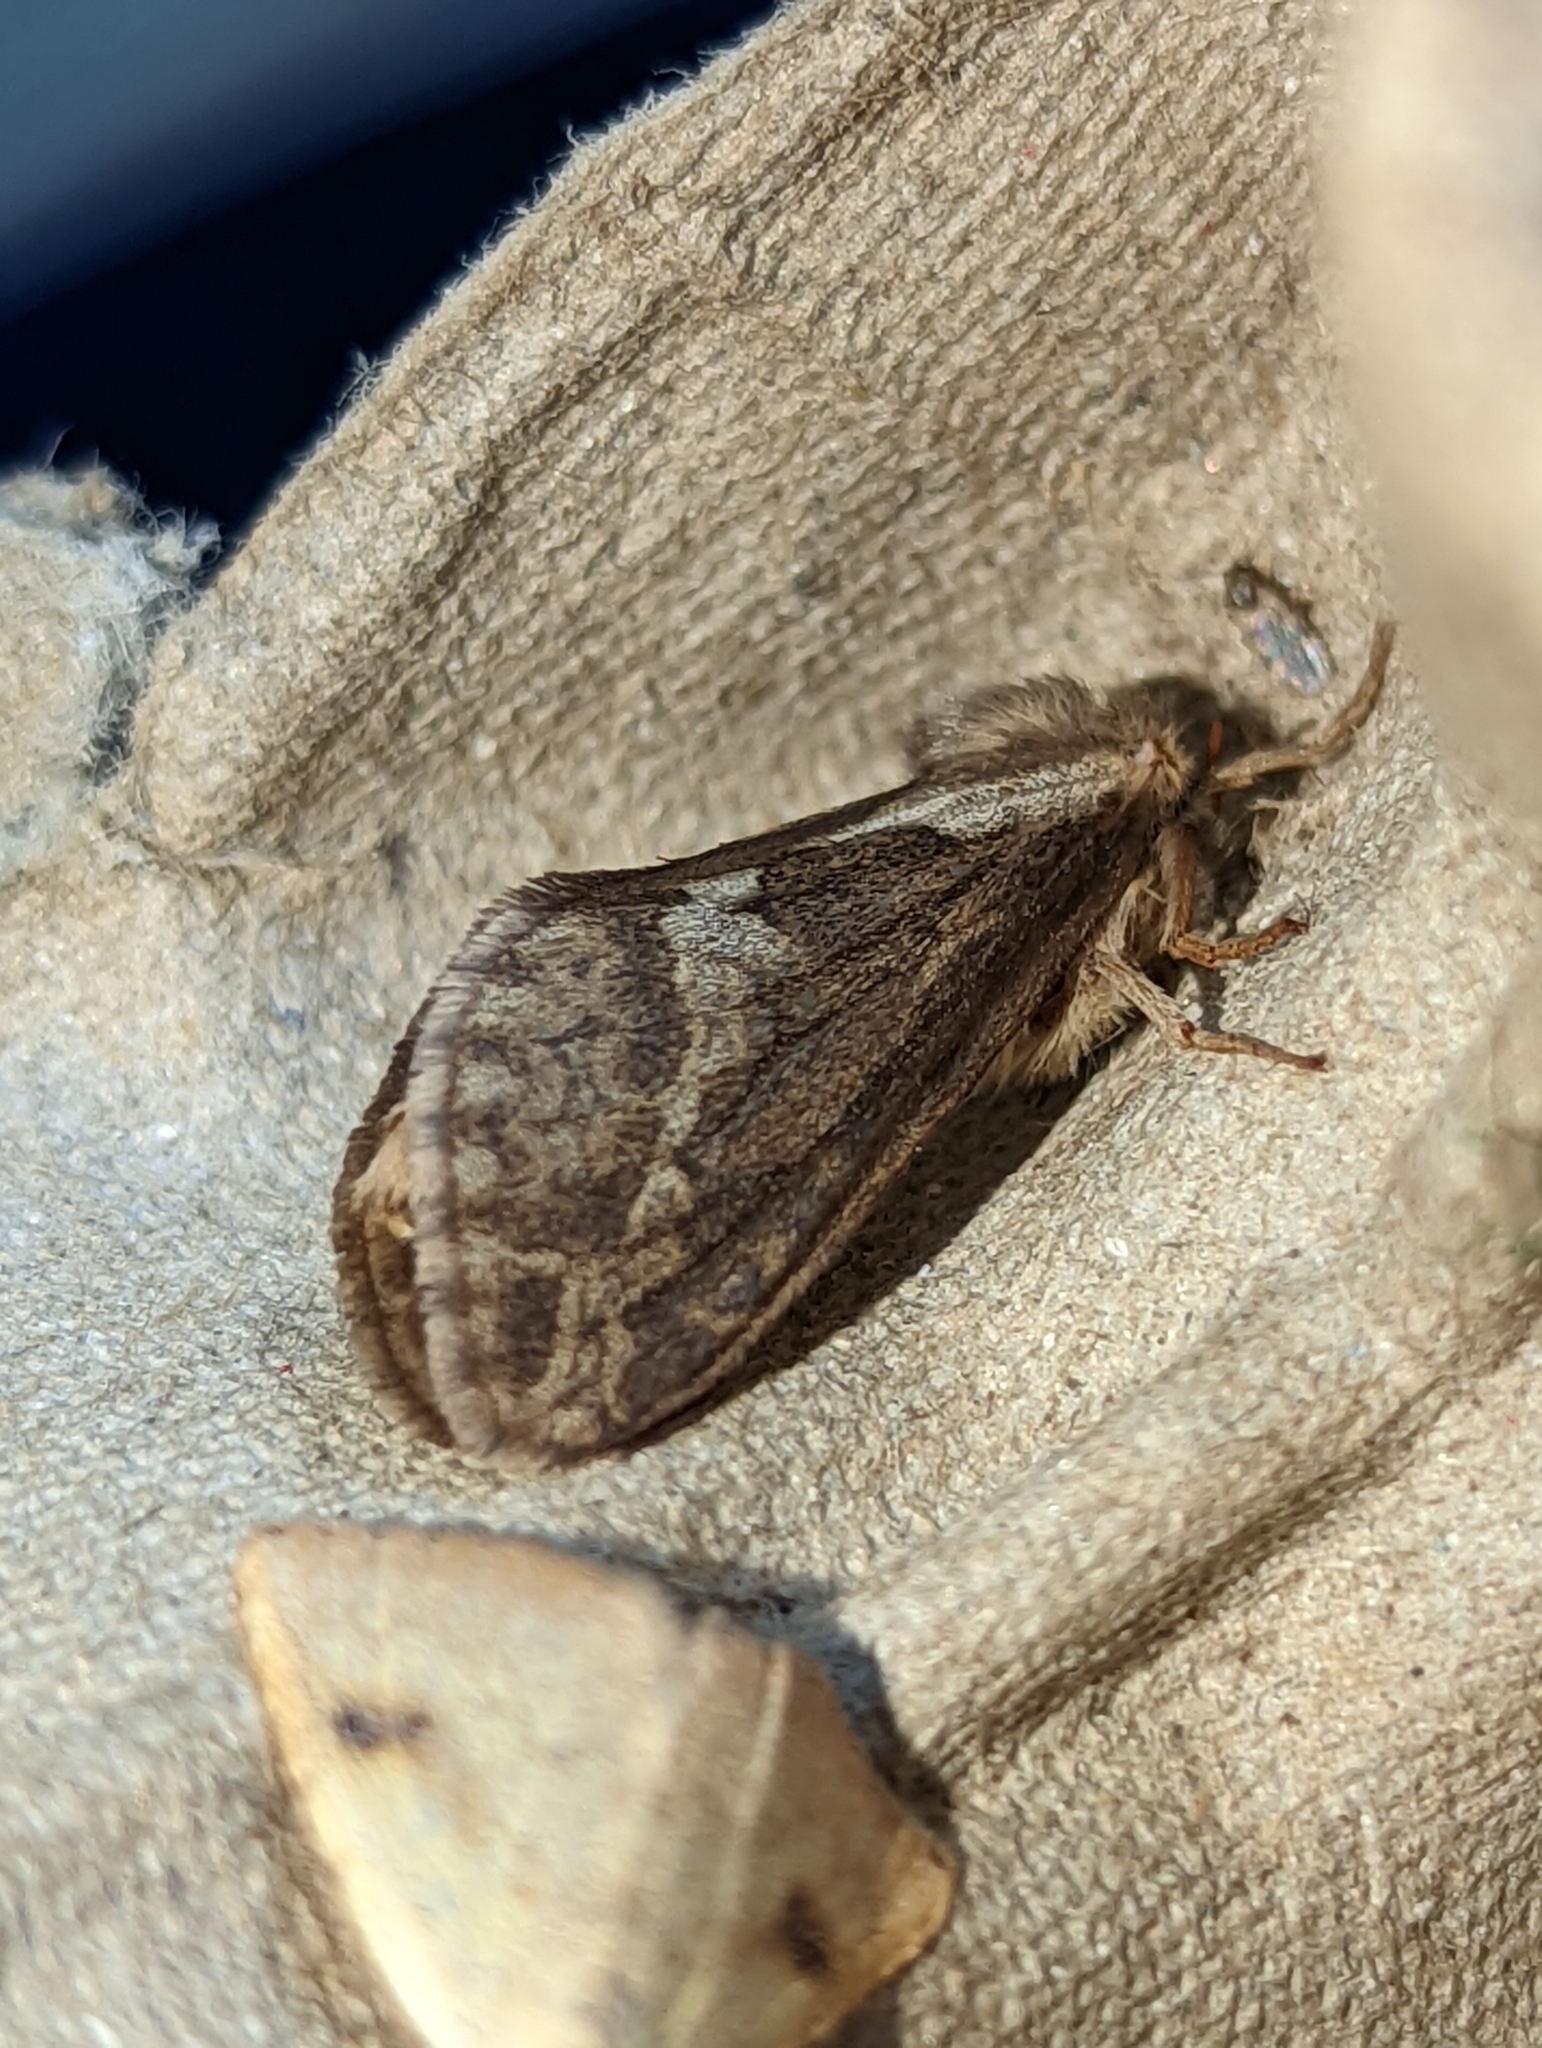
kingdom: Animalia
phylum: Arthropoda
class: Insecta
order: Lepidoptera
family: Hepialidae
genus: Korscheltellus
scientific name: Korscheltellus lupulina
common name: Common swift
